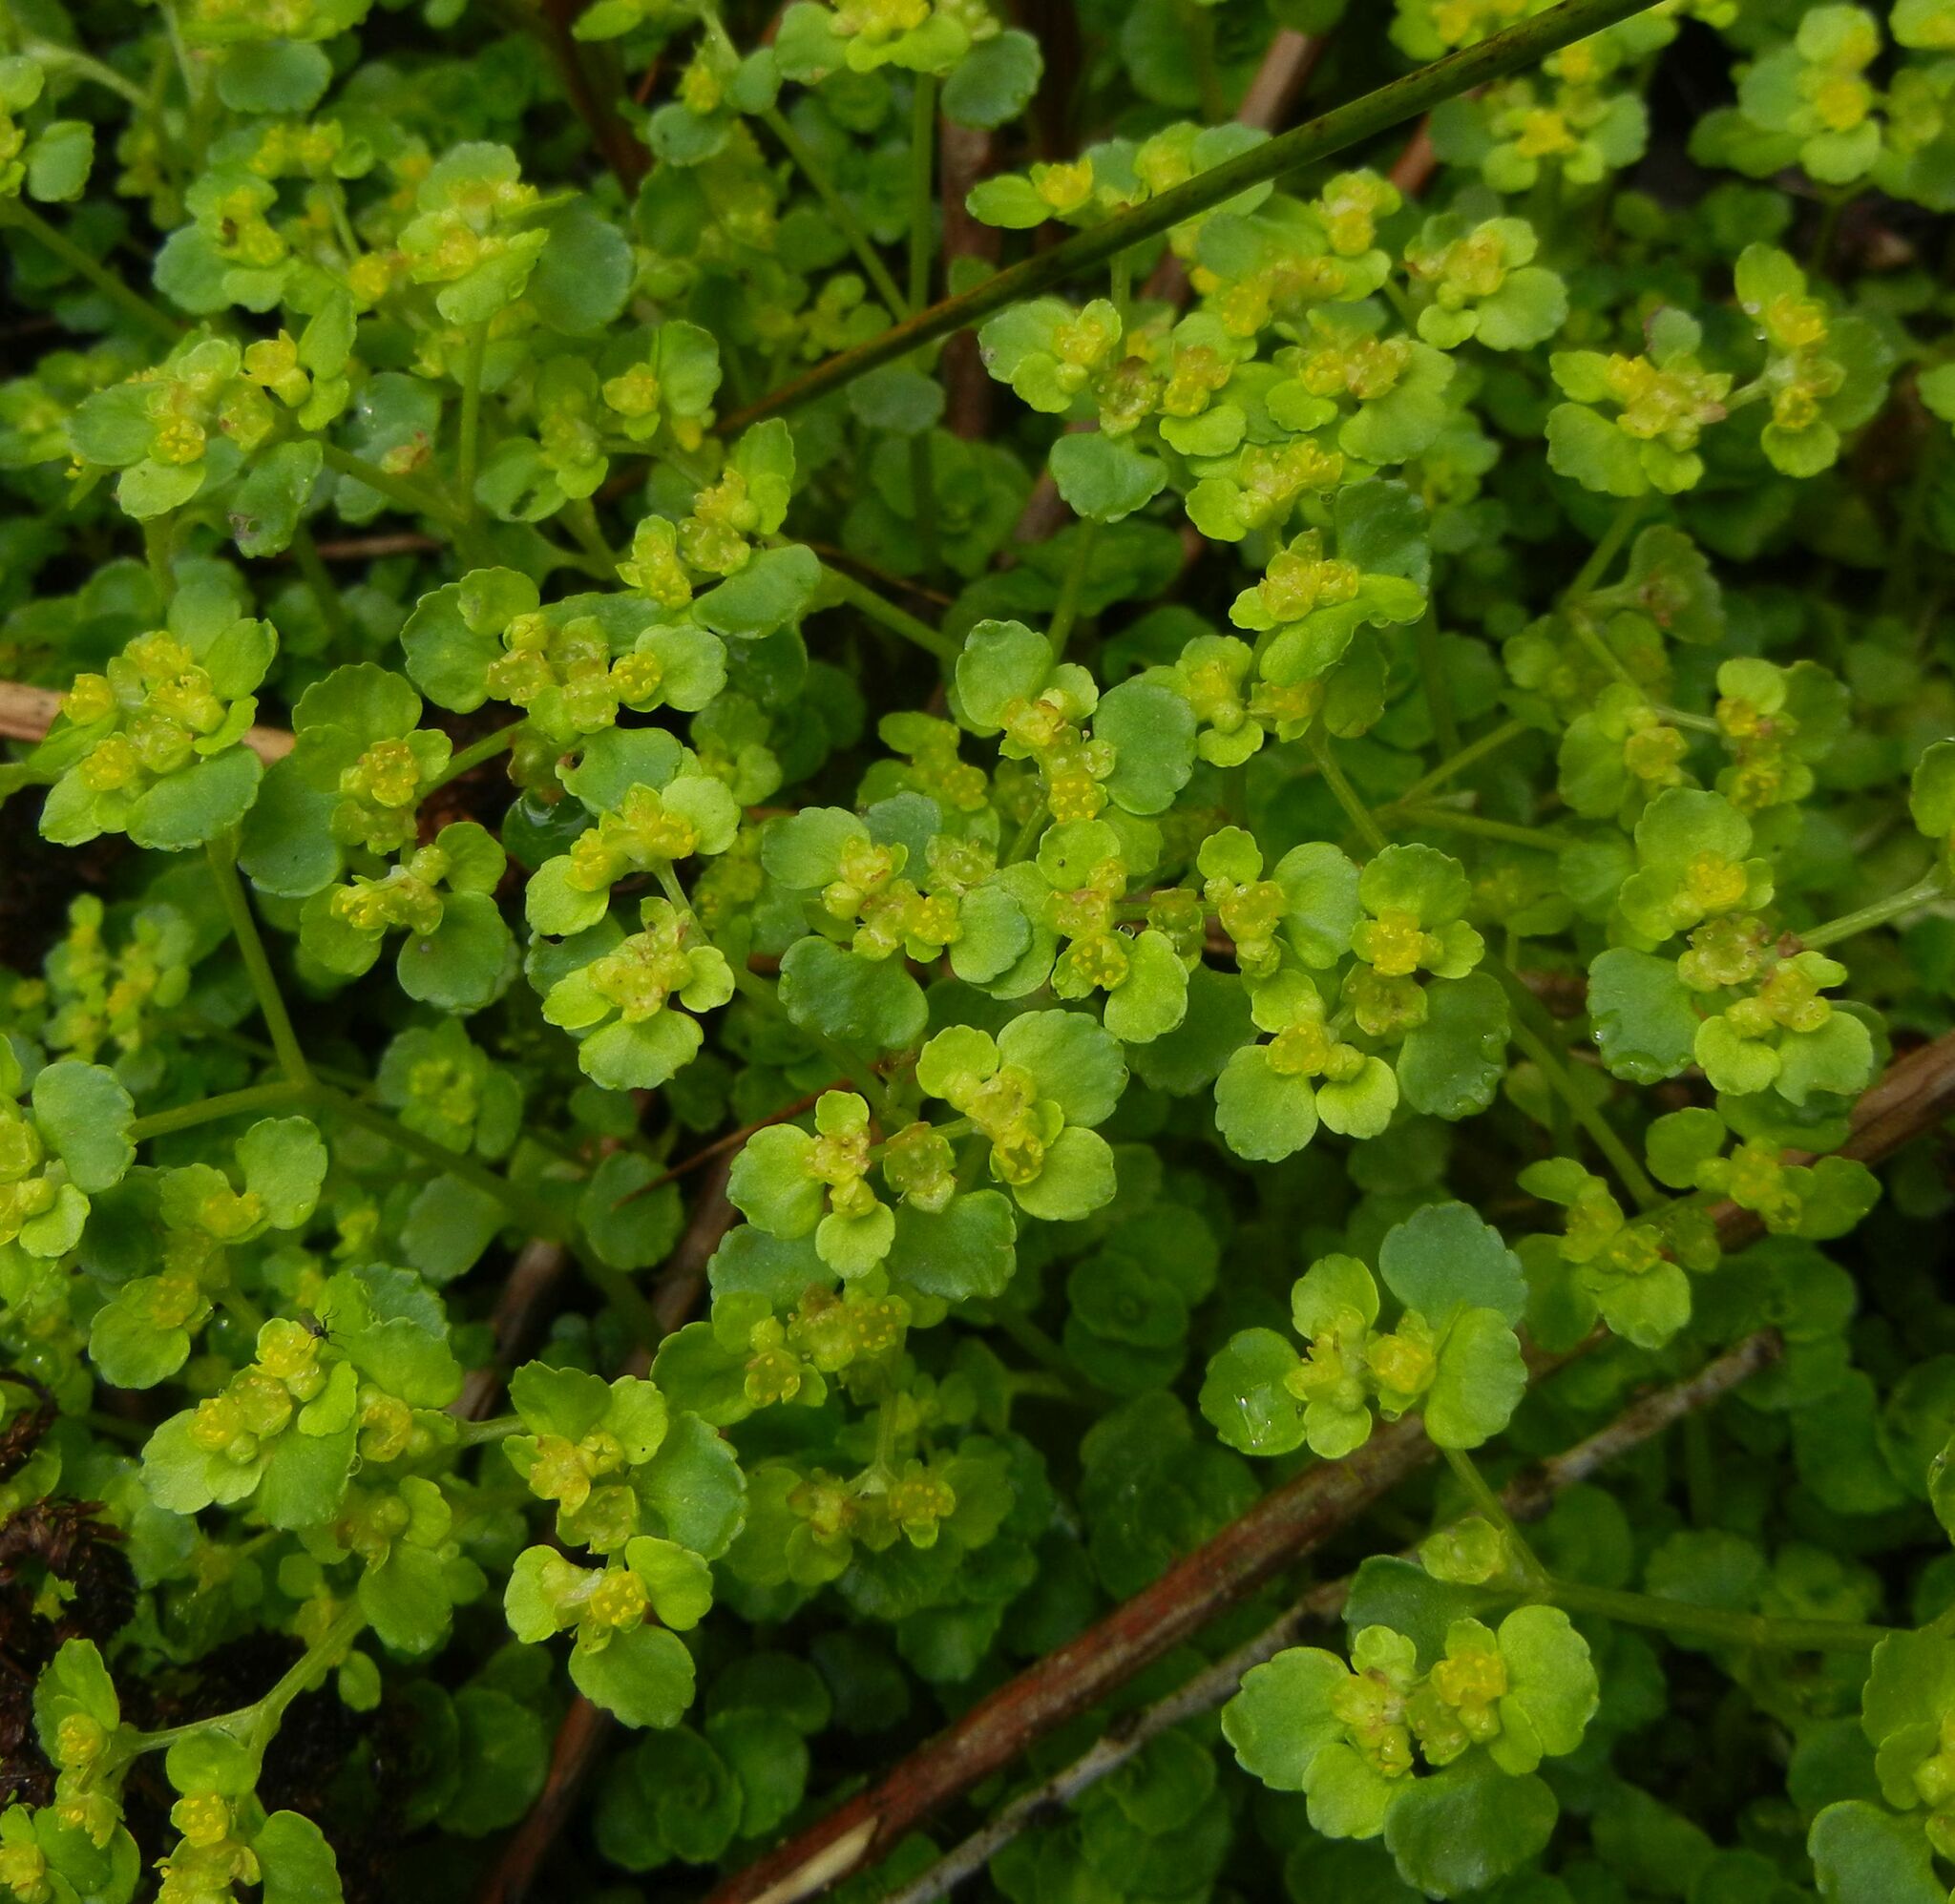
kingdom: Plantae
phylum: Tracheophyta
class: Magnoliopsida
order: Saxifragales
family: Saxifragaceae
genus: Chrysosplenium
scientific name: Chrysosplenium oppositifolium
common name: Opposite-leaved golden-saxifrage
